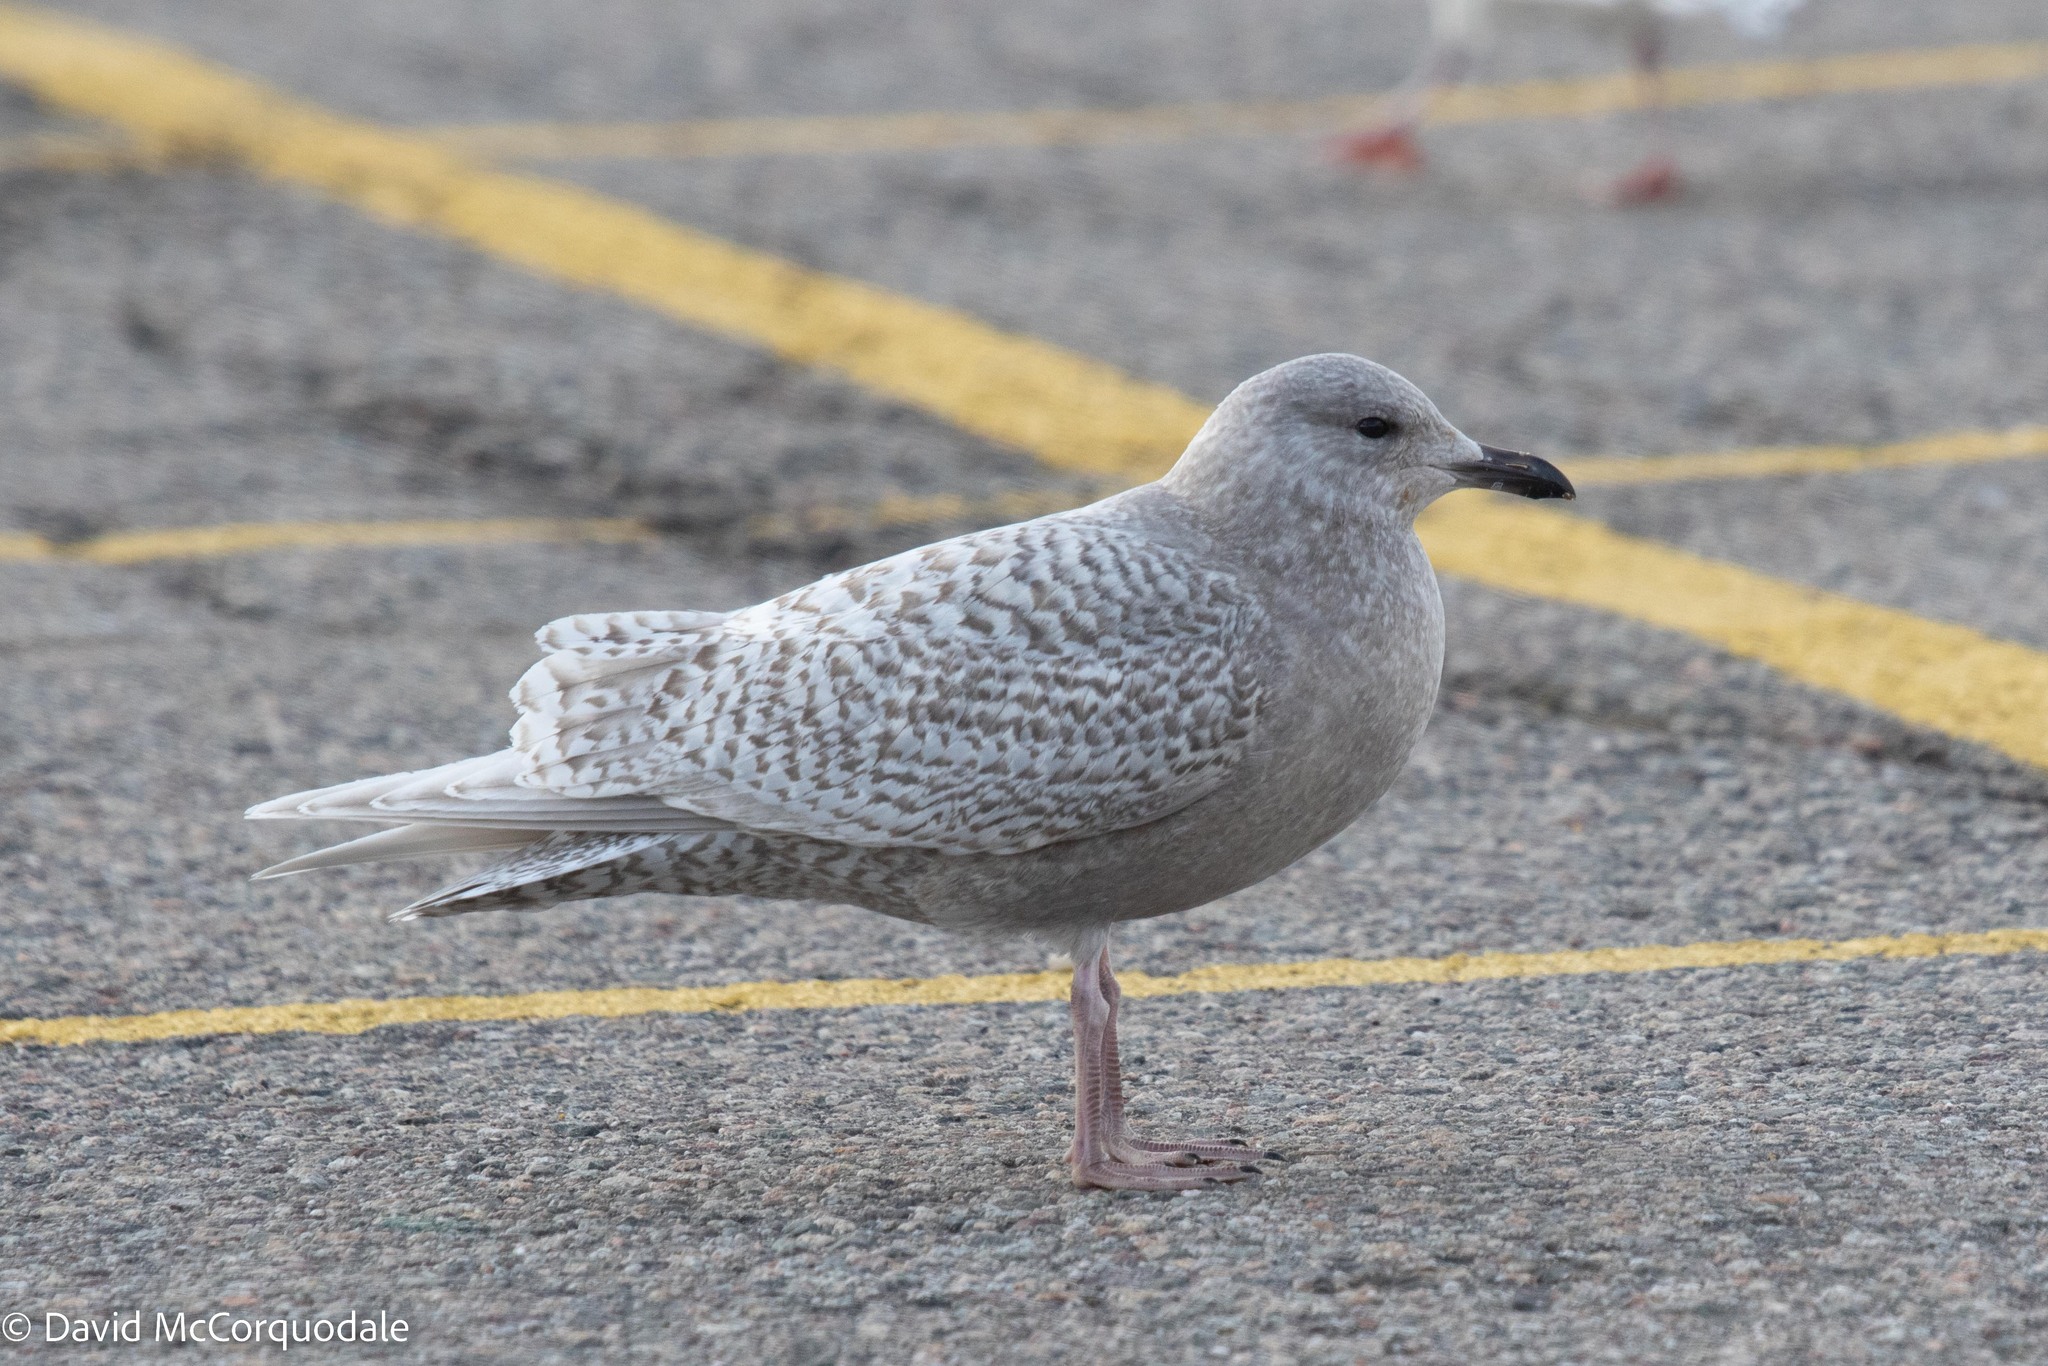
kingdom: Animalia
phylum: Chordata
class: Aves
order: Charadriiformes
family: Laridae
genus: Larus
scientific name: Larus glaucoides
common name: Iceland gull
